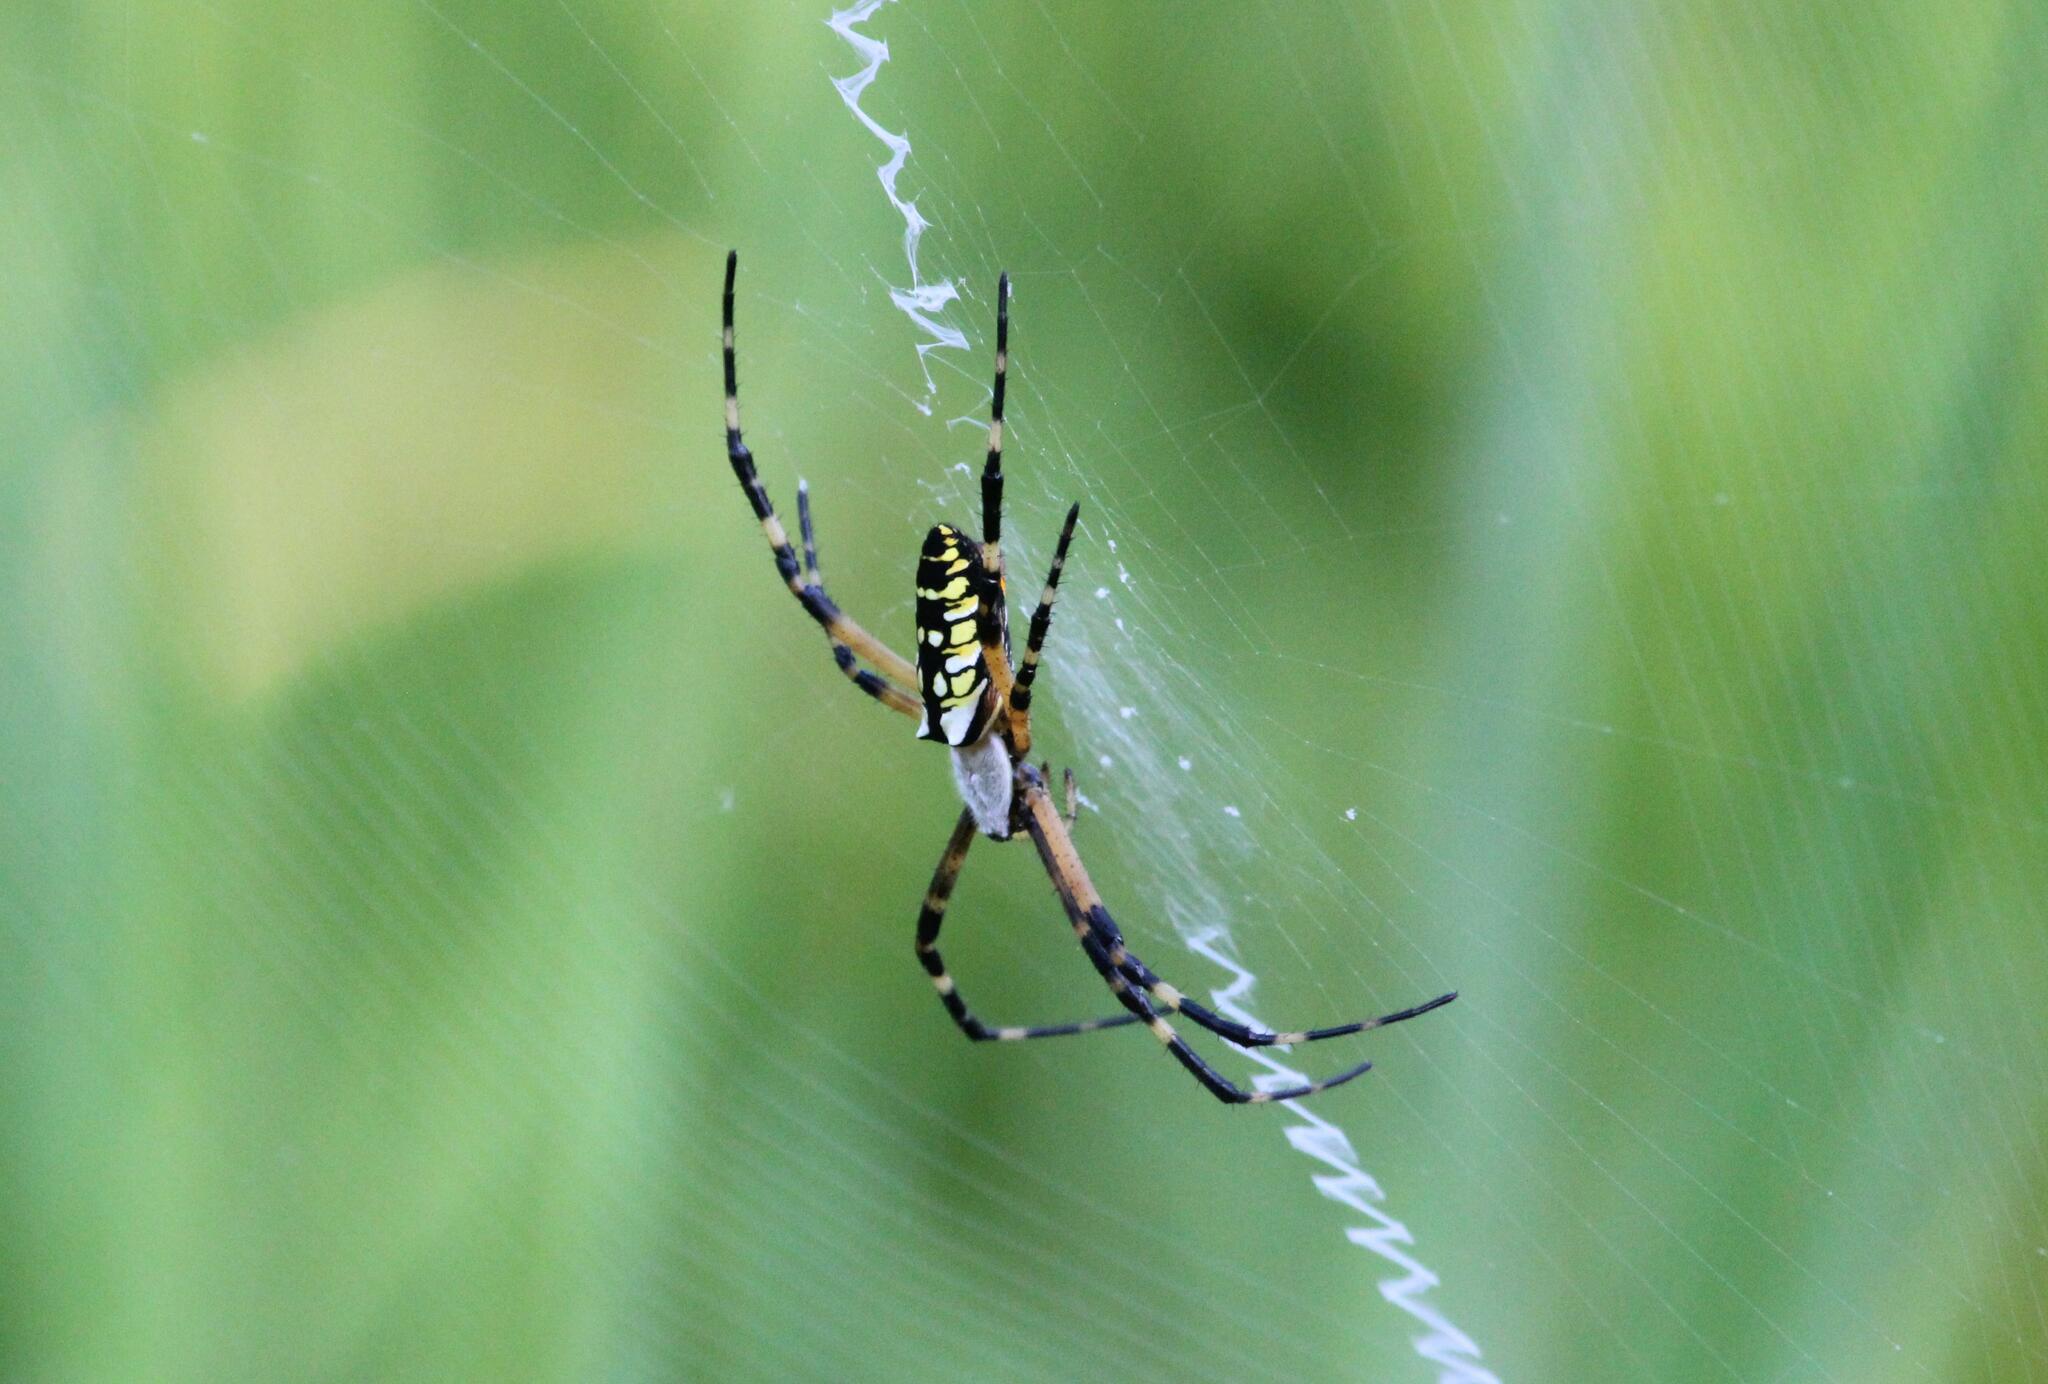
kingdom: Animalia
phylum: Arthropoda
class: Arachnida
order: Araneae
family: Araneidae
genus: Argiope
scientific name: Argiope aurantia
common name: Orb weavers
